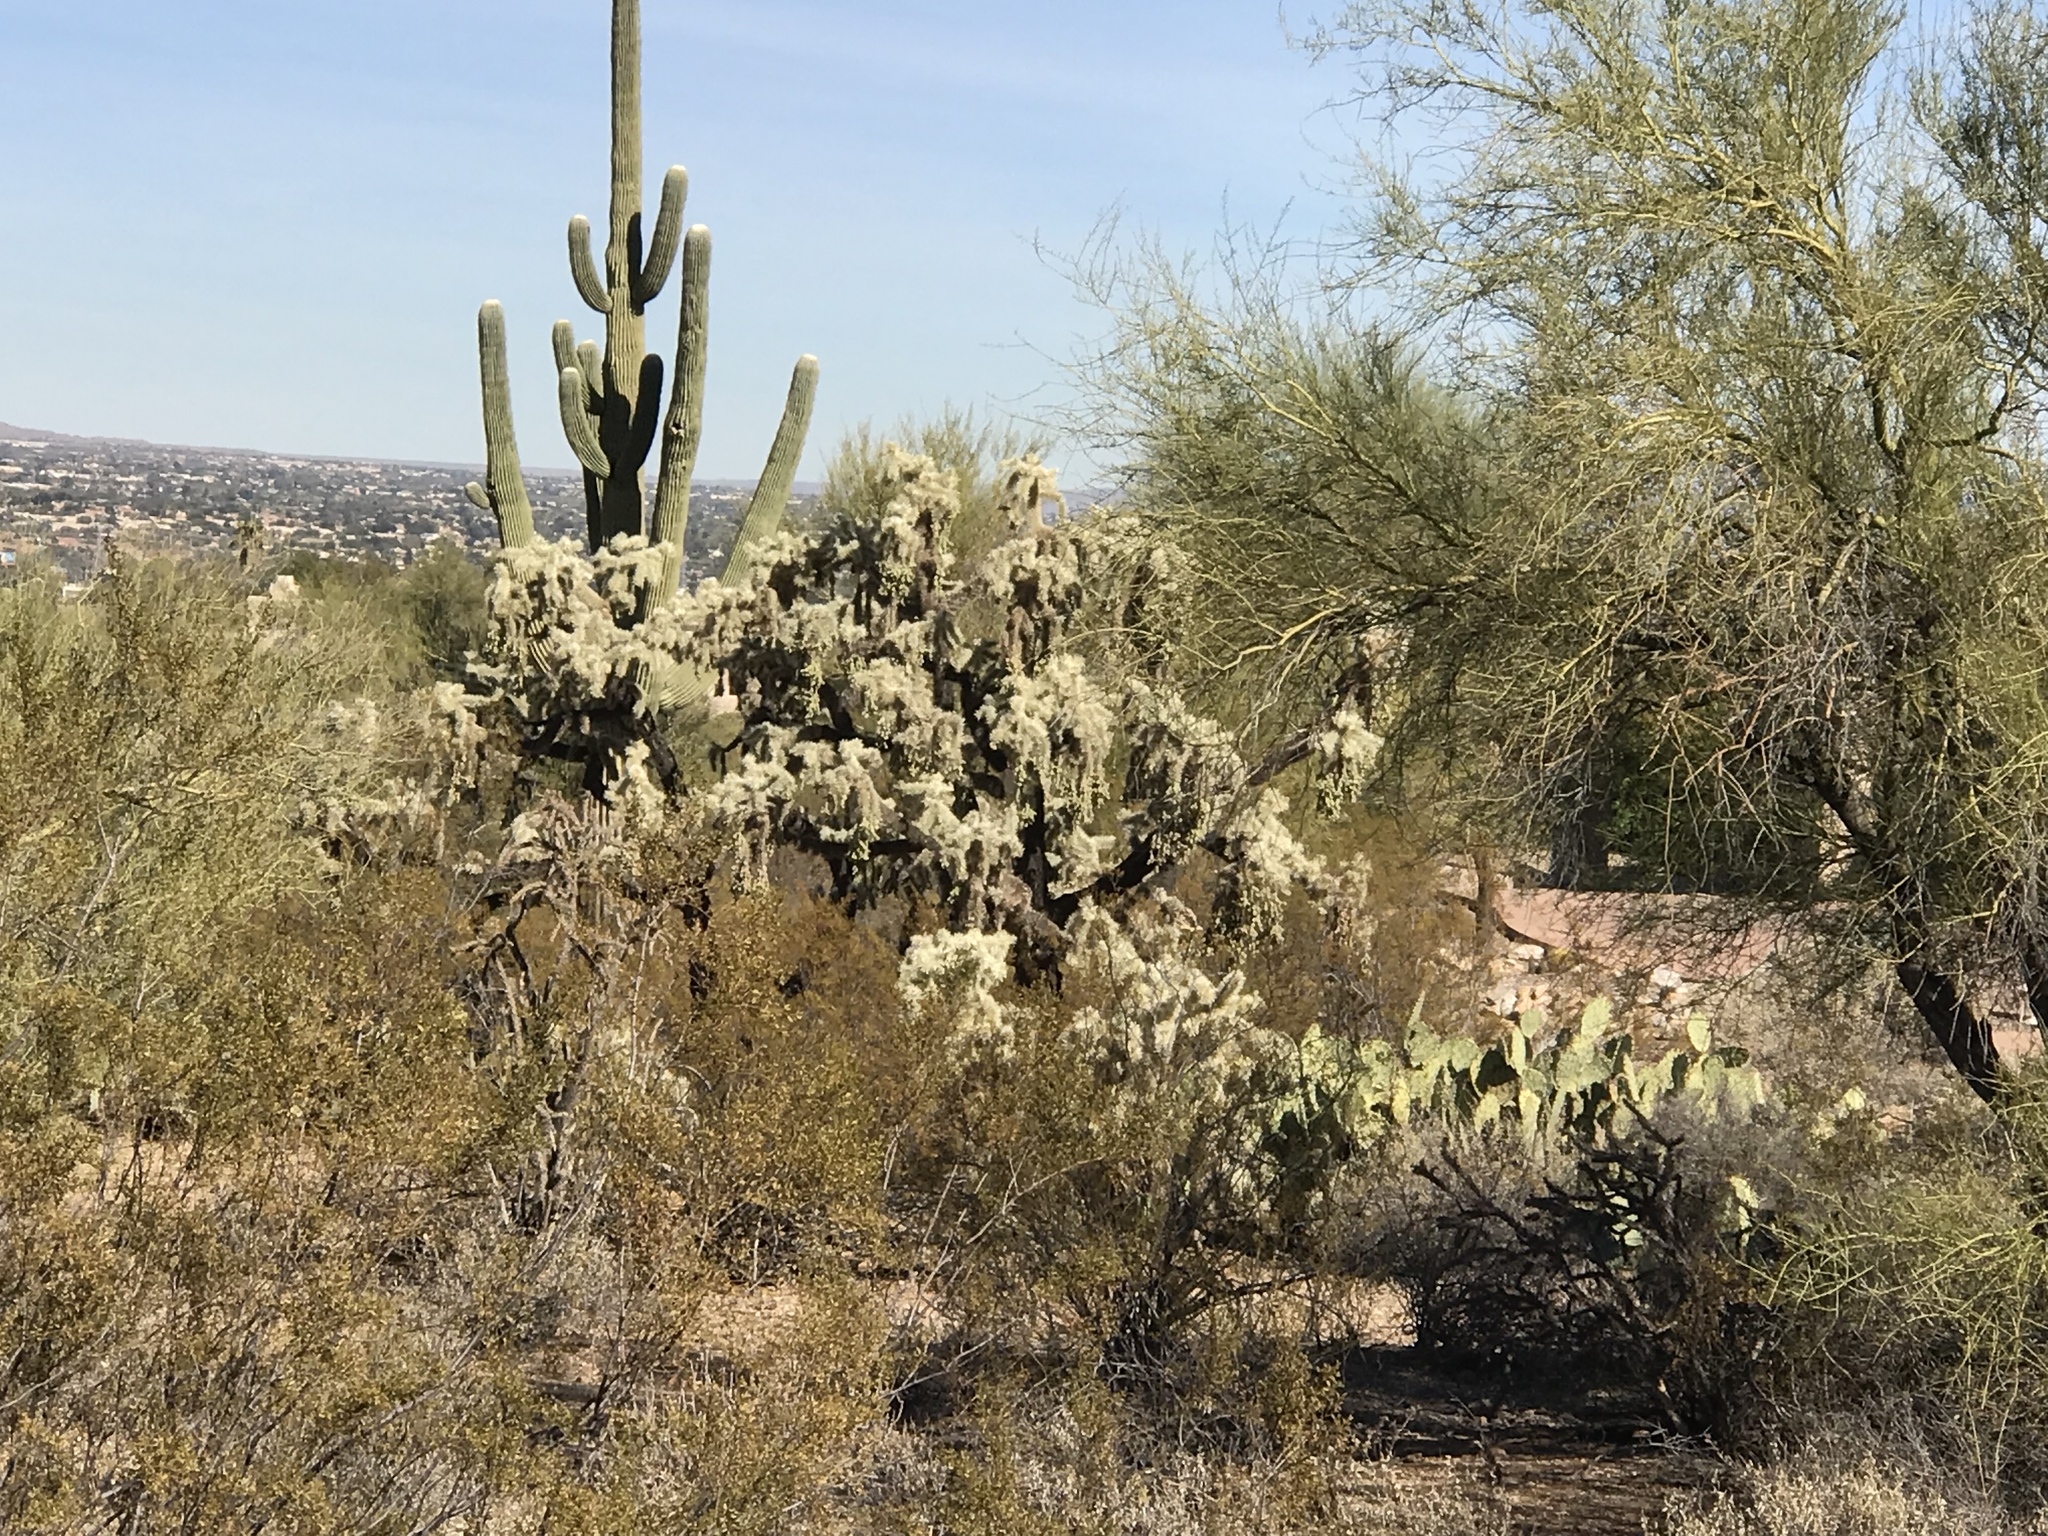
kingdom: Plantae
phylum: Tracheophyta
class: Magnoliopsida
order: Caryophyllales
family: Cactaceae
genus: Cylindropuntia
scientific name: Cylindropuntia fulgida
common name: Jumping cholla
